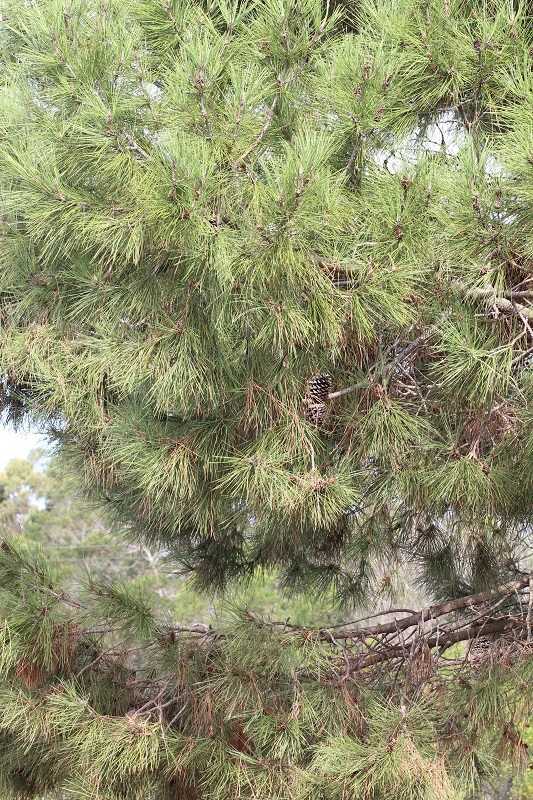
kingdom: Plantae
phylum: Tracheophyta
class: Pinopsida
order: Pinales
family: Pinaceae
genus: Pinus
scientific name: Pinus pinaster
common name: Maritime pine
